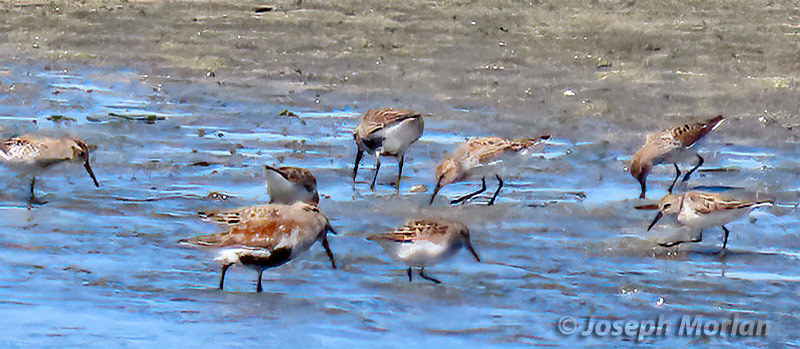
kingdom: Animalia
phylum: Chordata
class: Aves
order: Charadriiformes
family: Scolopacidae
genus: Calidris
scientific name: Calidris alpina
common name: Dunlin
